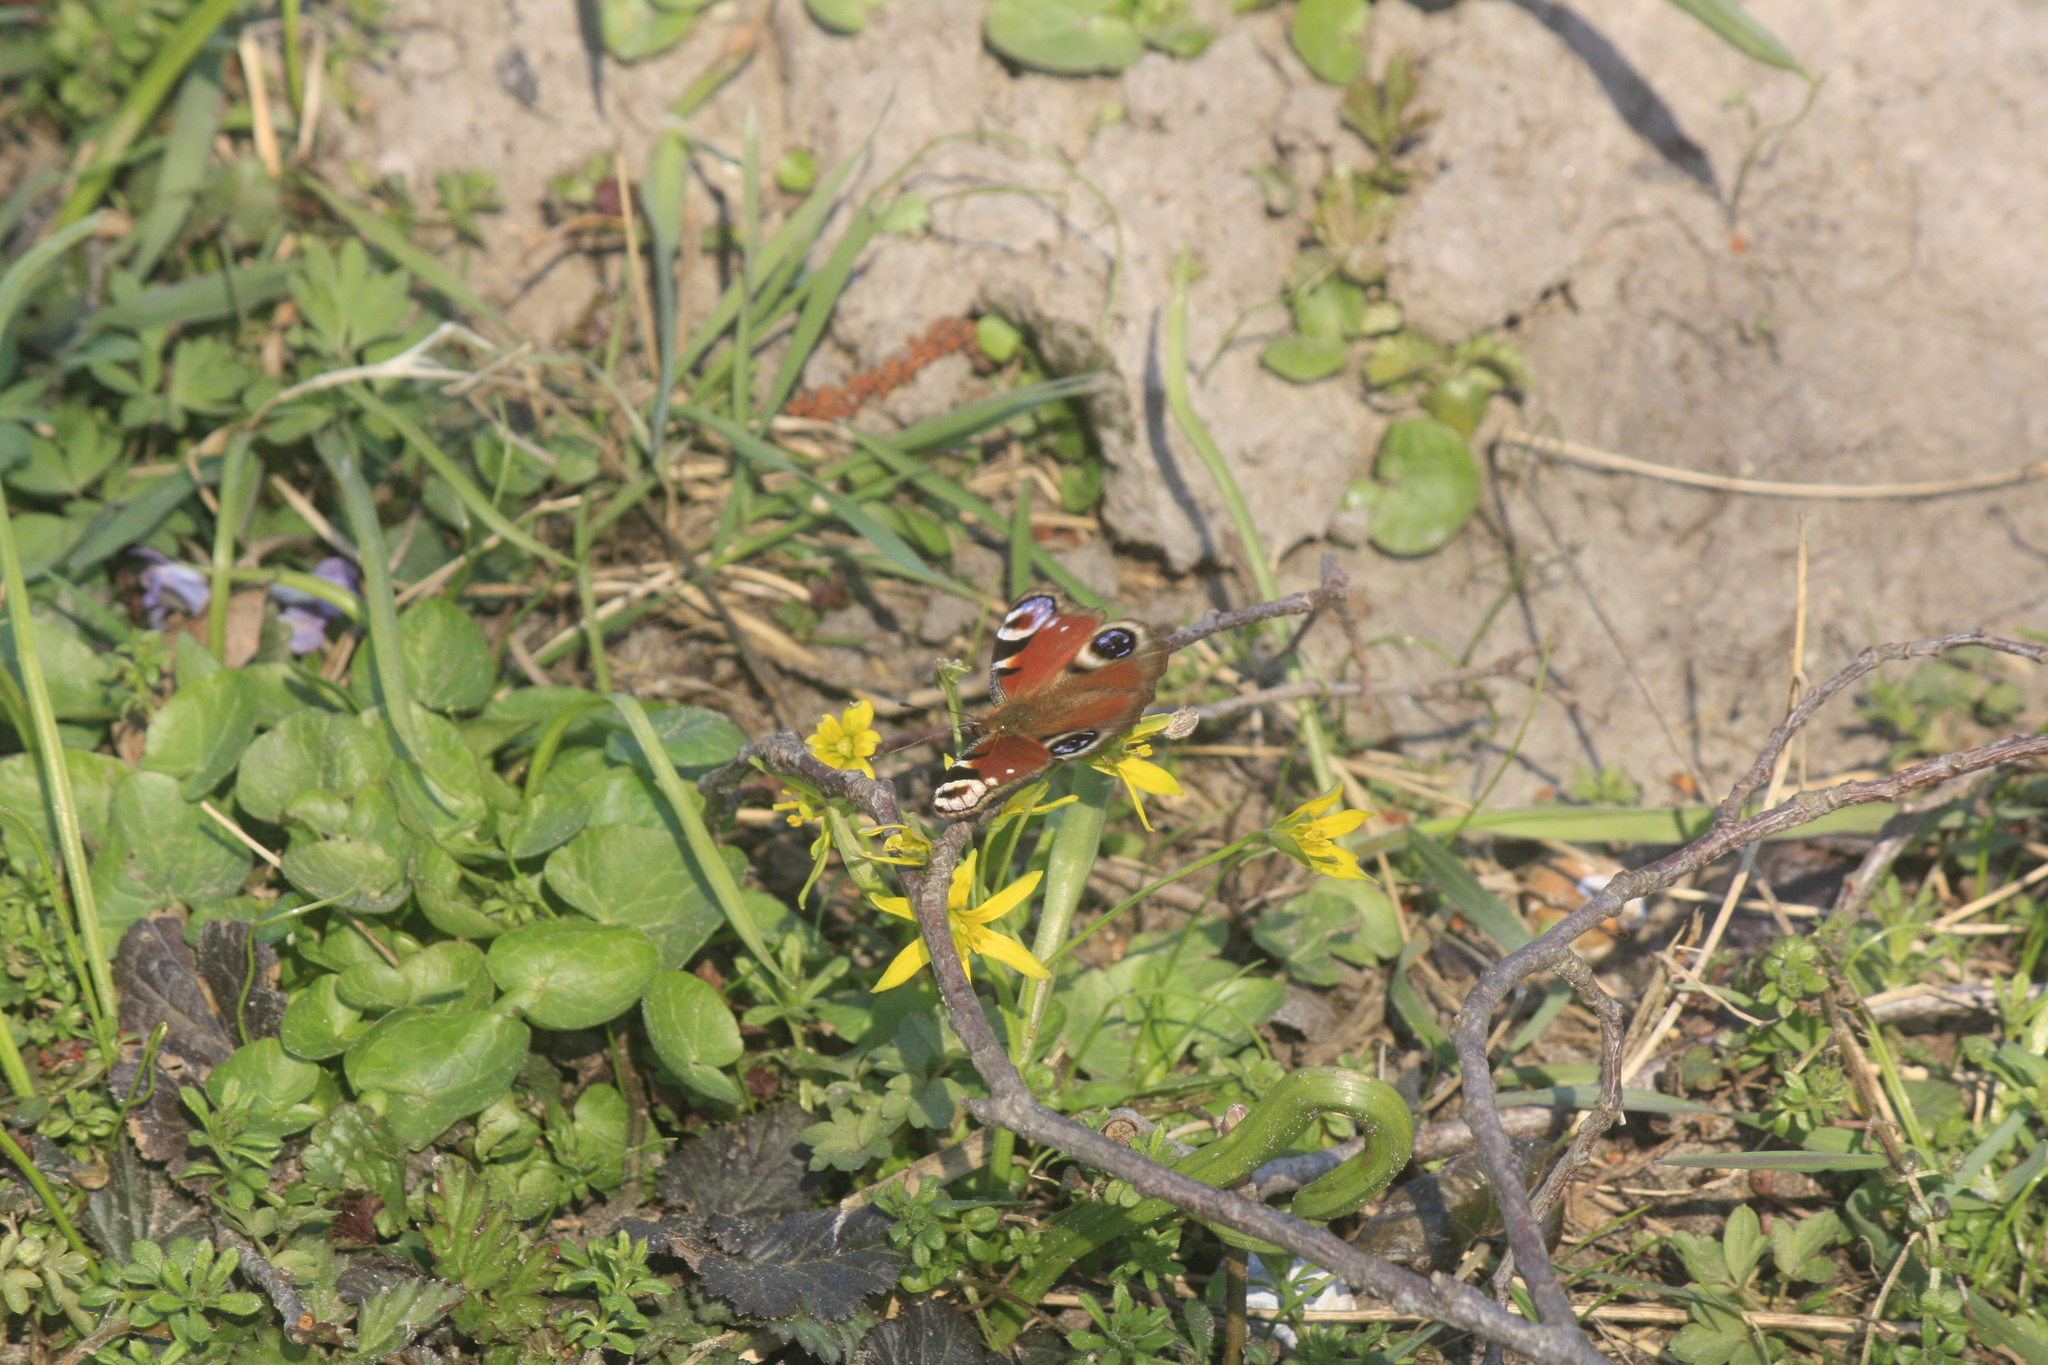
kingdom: Animalia
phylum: Arthropoda
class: Insecta
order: Lepidoptera
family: Nymphalidae
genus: Aglais
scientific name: Aglais io
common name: Peacock
